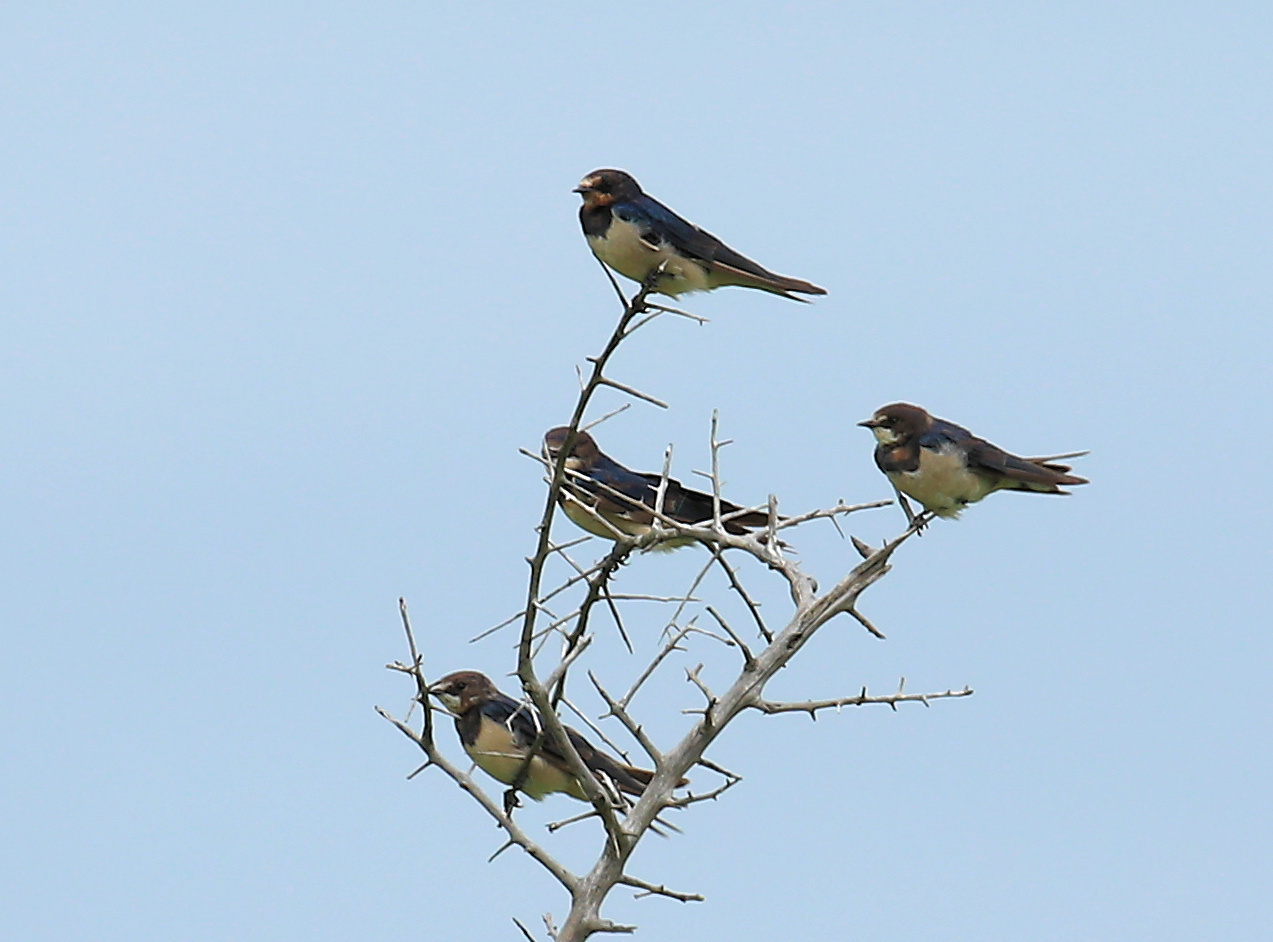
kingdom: Animalia
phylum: Chordata
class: Aves
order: Passeriformes
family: Hirundinidae
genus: Hirundo
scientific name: Hirundo rustica
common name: Barn swallow
